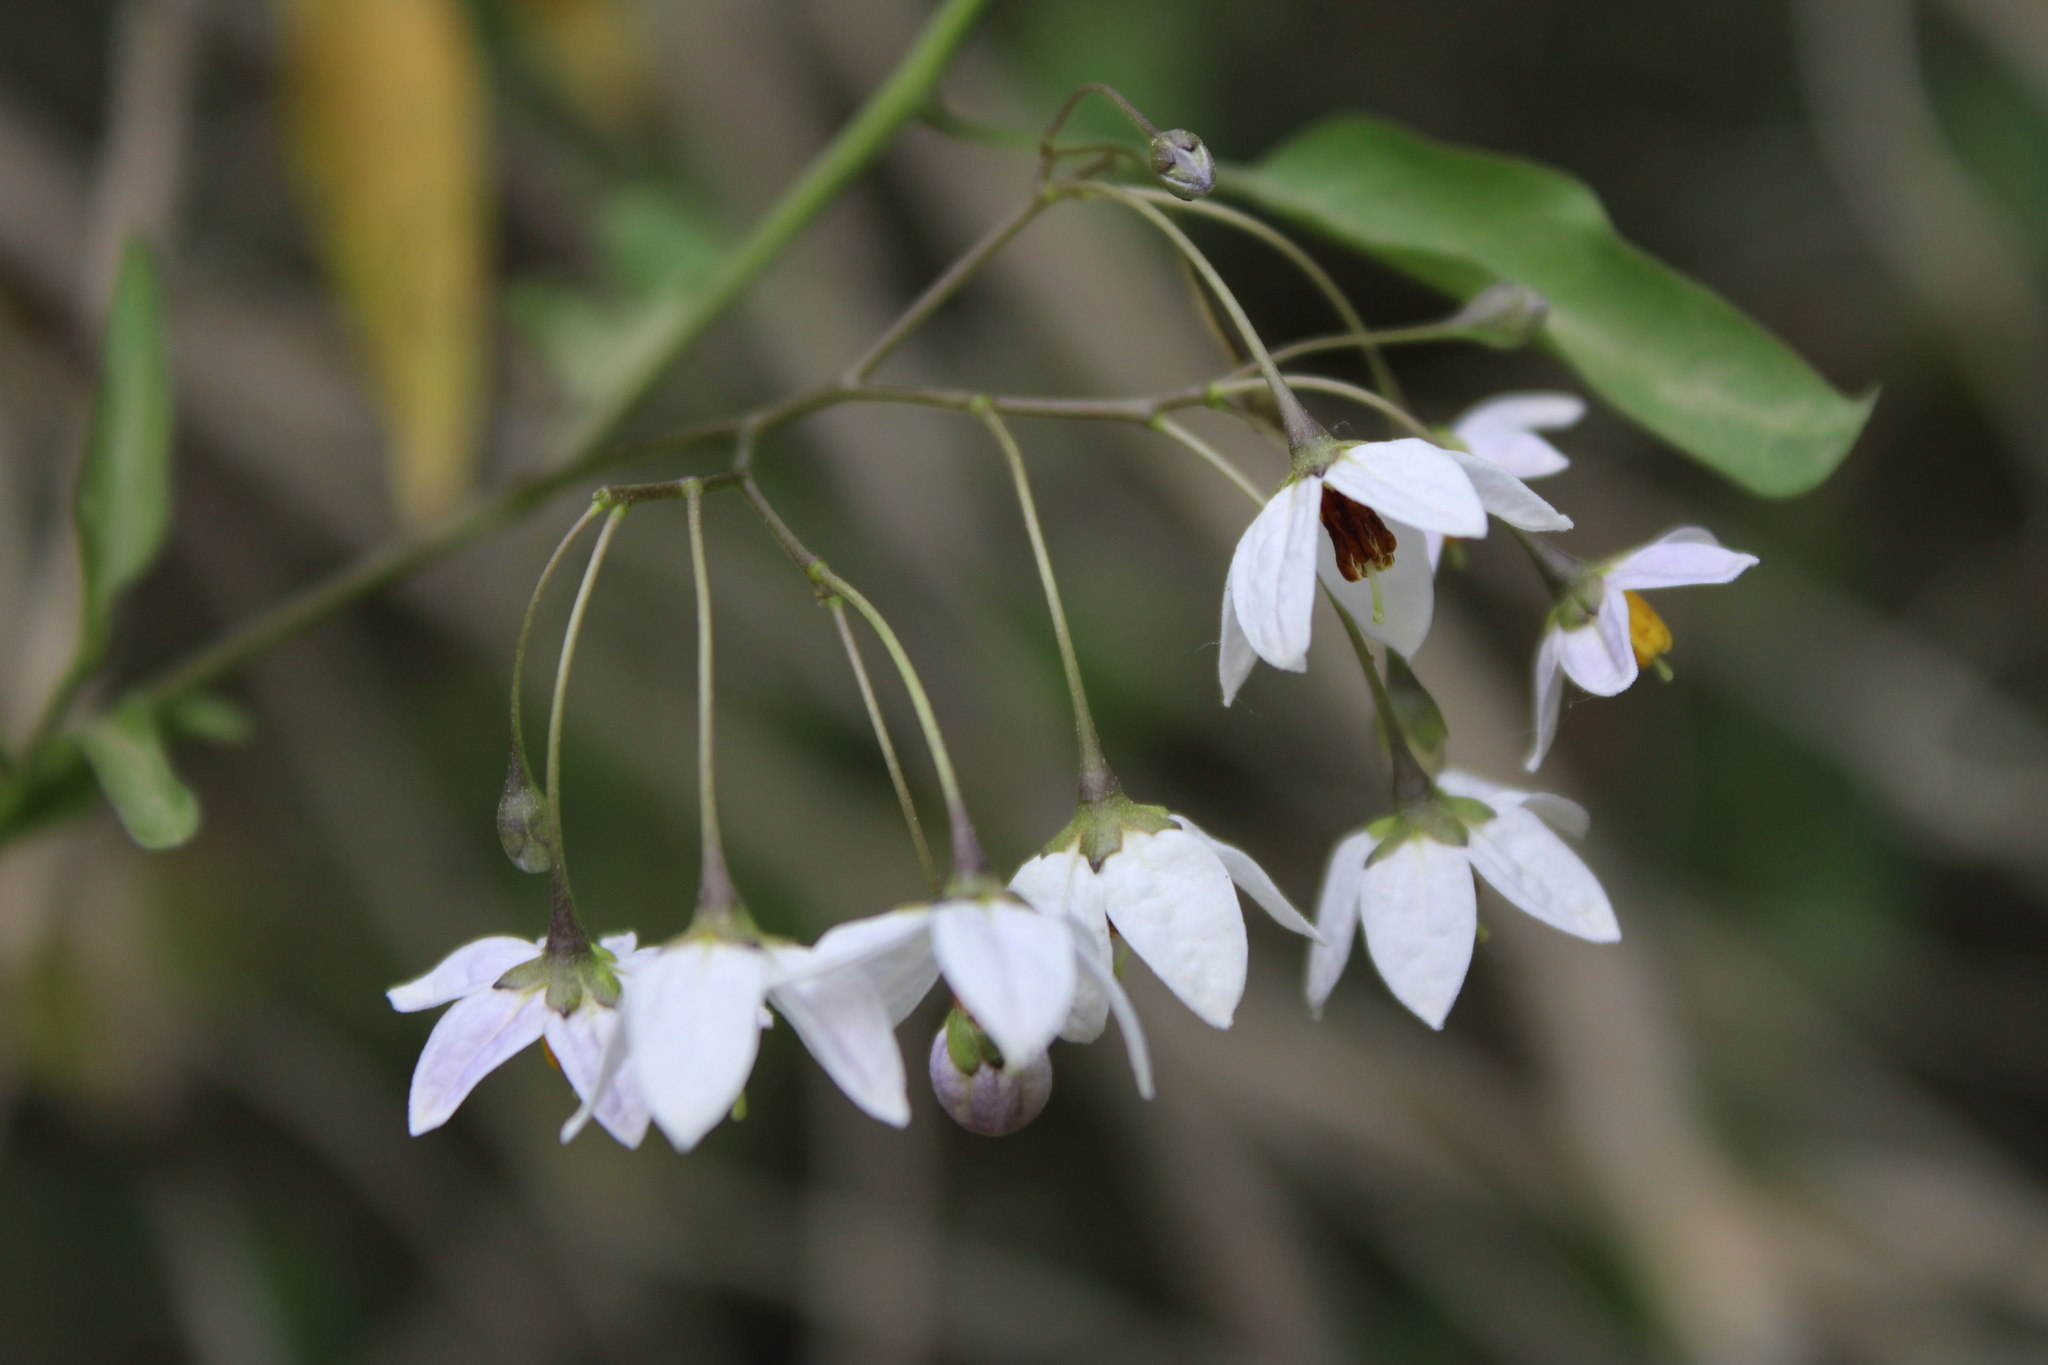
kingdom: Plantae
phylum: Tracheophyta
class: Magnoliopsida
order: Solanales
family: Solanaceae
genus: Solanum
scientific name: Solanum laxum
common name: Nightshade
